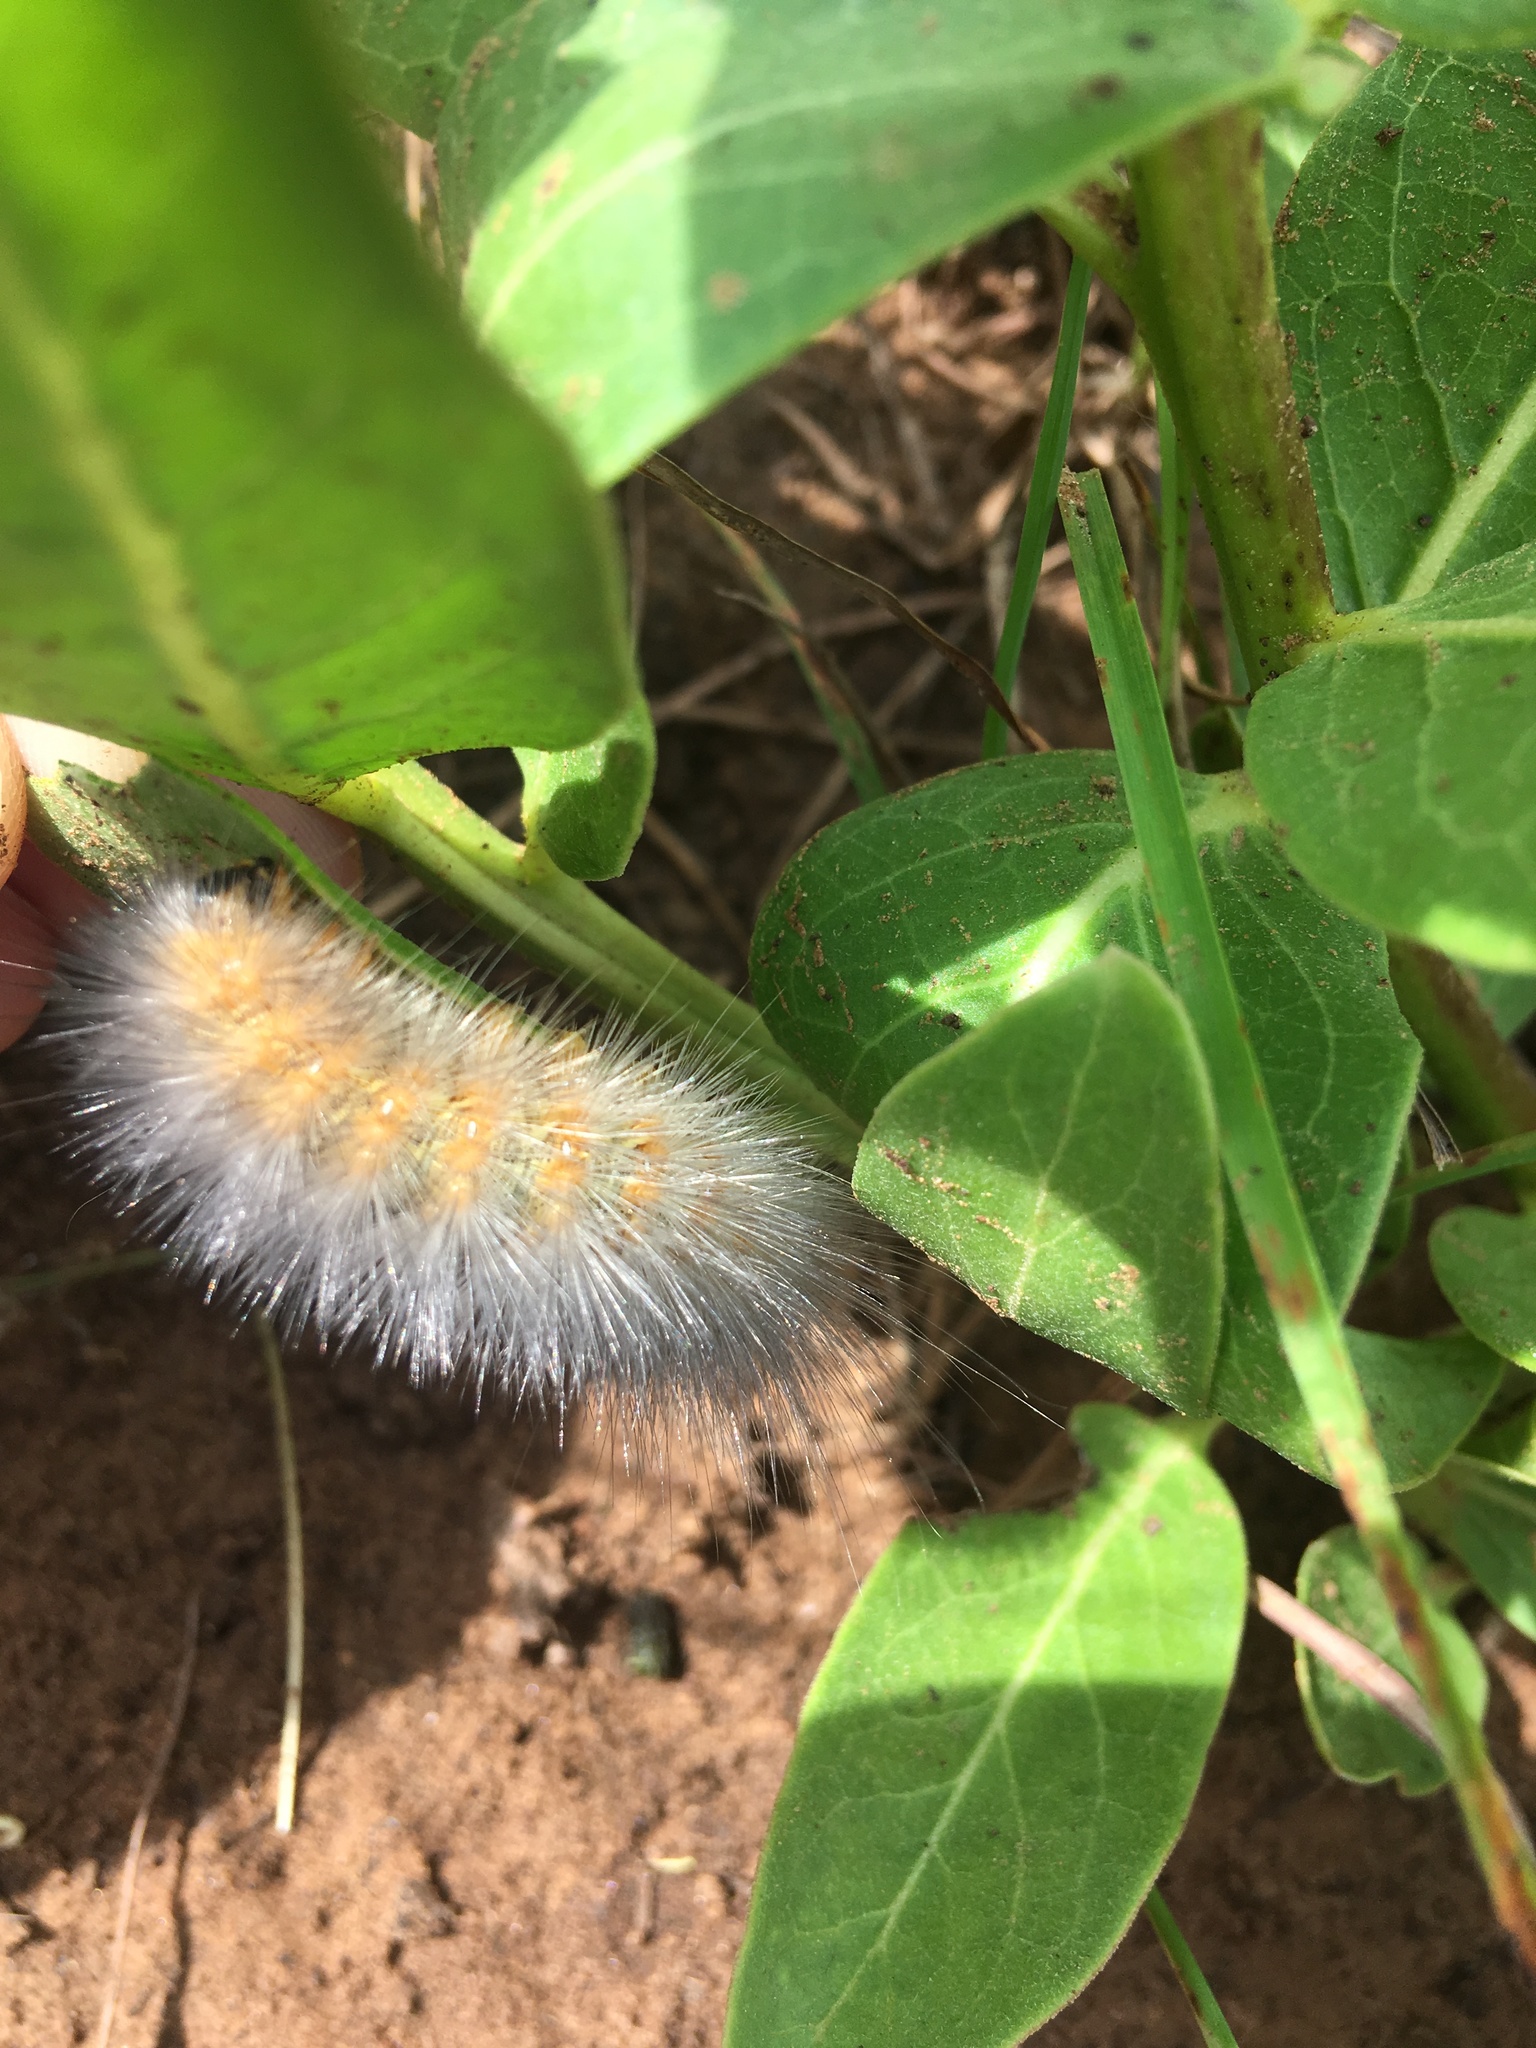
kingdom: Animalia
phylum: Arthropoda
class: Insecta
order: Lepidoptera
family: Erebidae
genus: Estigmene
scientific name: Estigmene acrea
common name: Salt marsh moth
